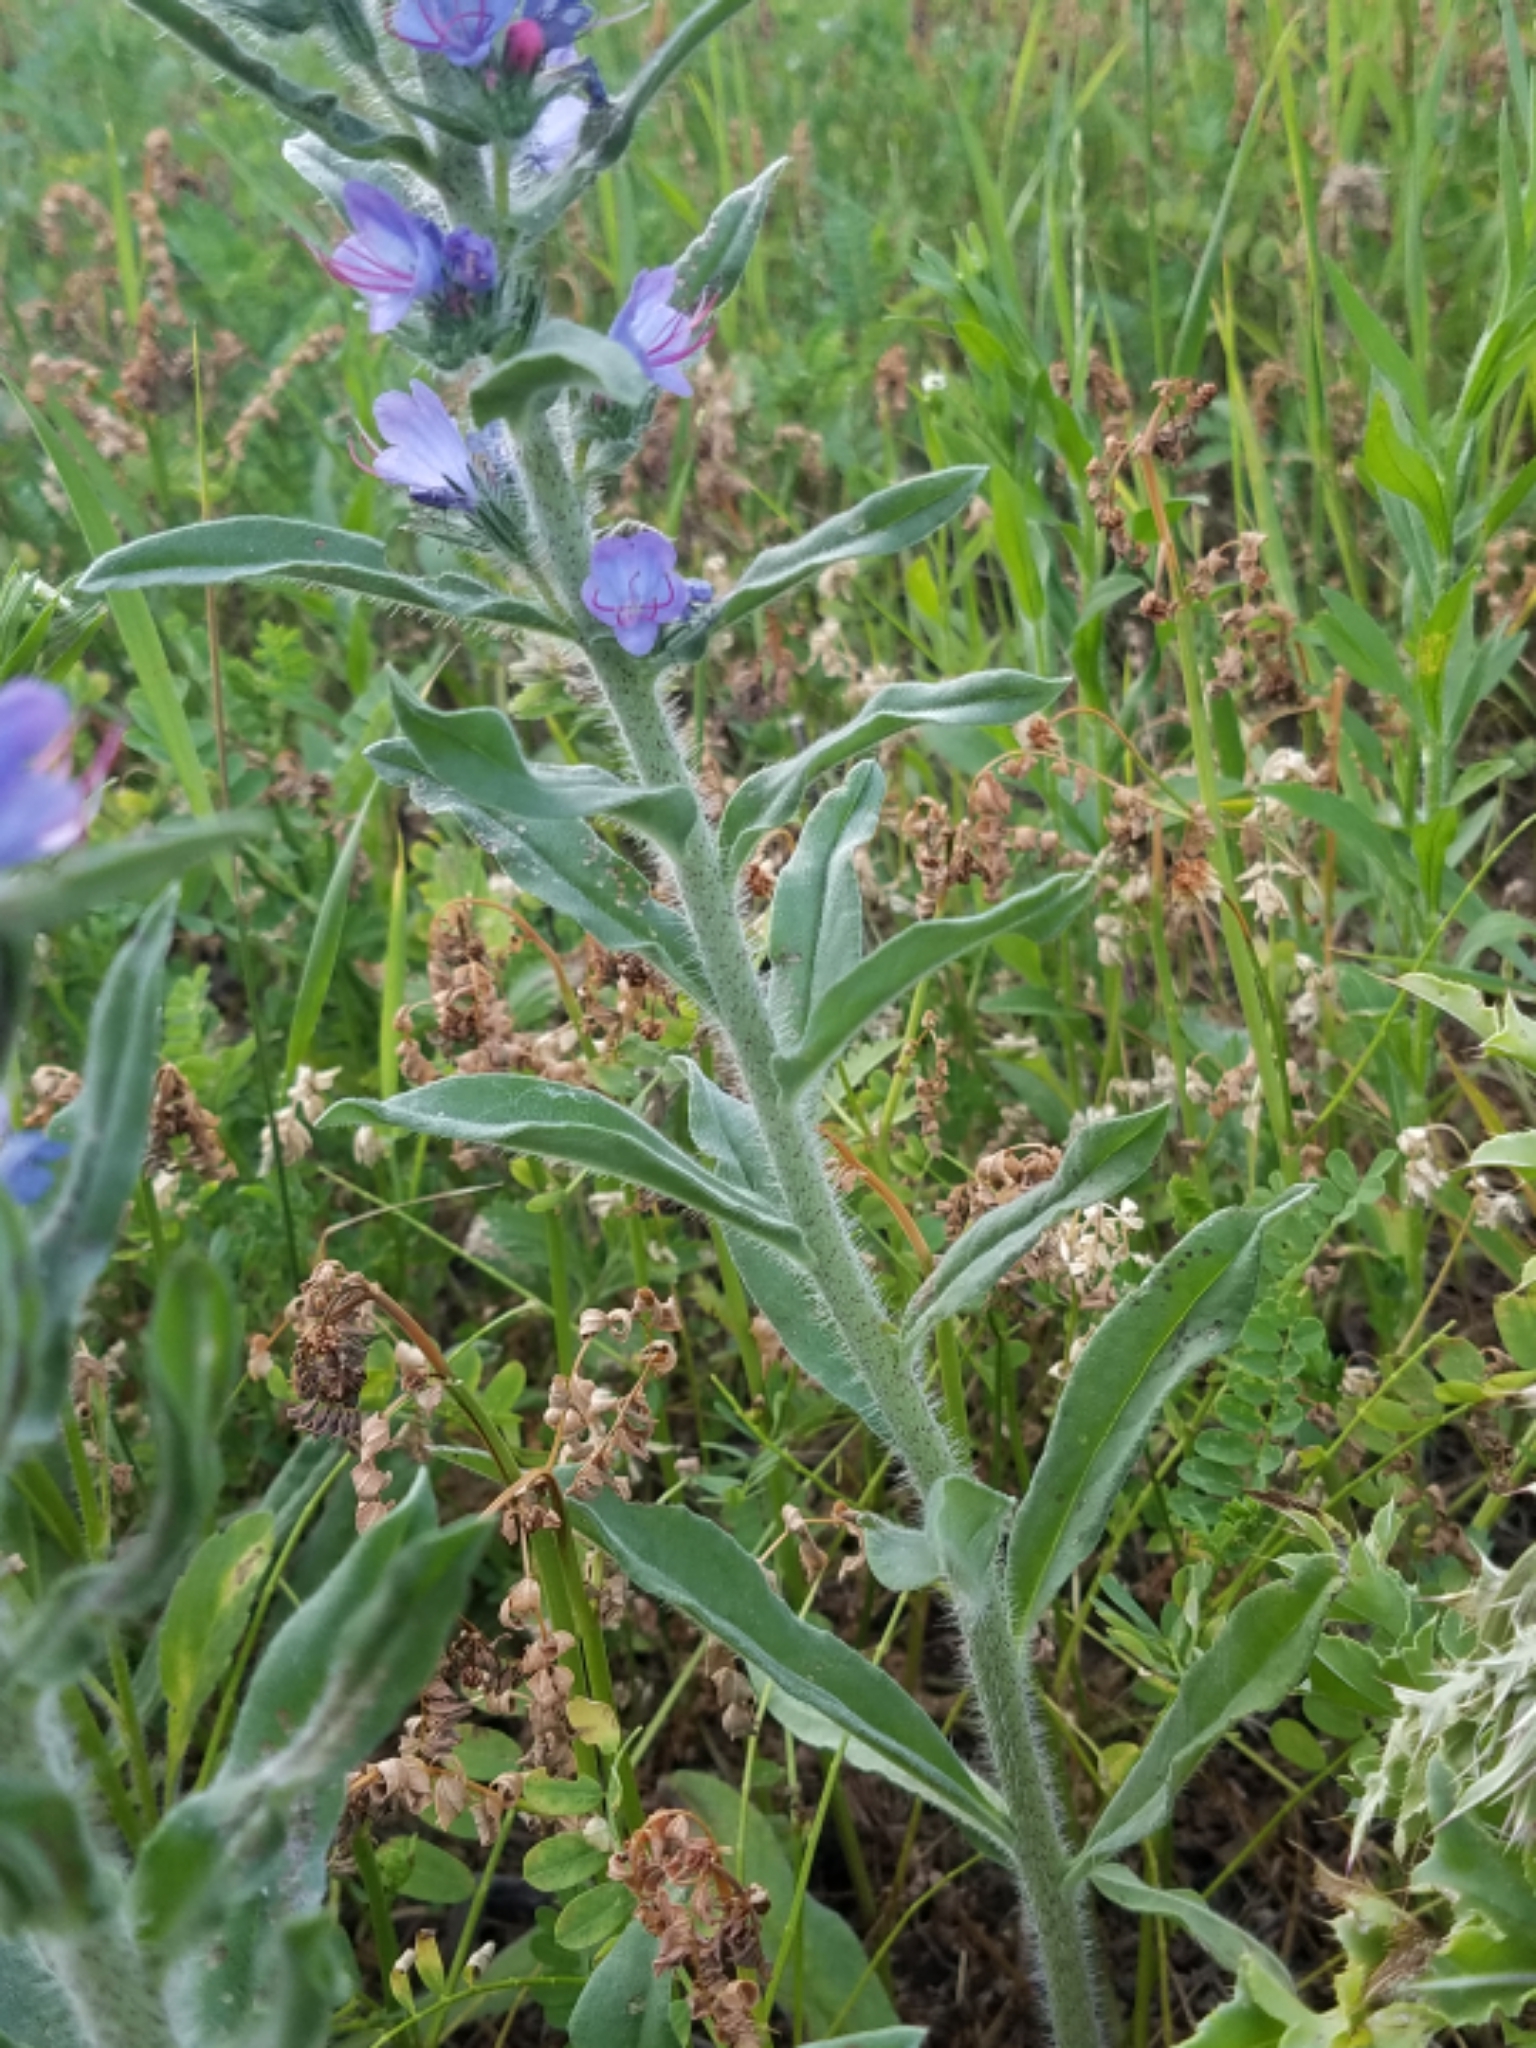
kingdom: Plantae
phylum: Tracheophyta
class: Magnoliopsida
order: Boraginales
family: Boraginaceae
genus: Echium
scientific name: Echium vulgare
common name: Common viper's bugloss
